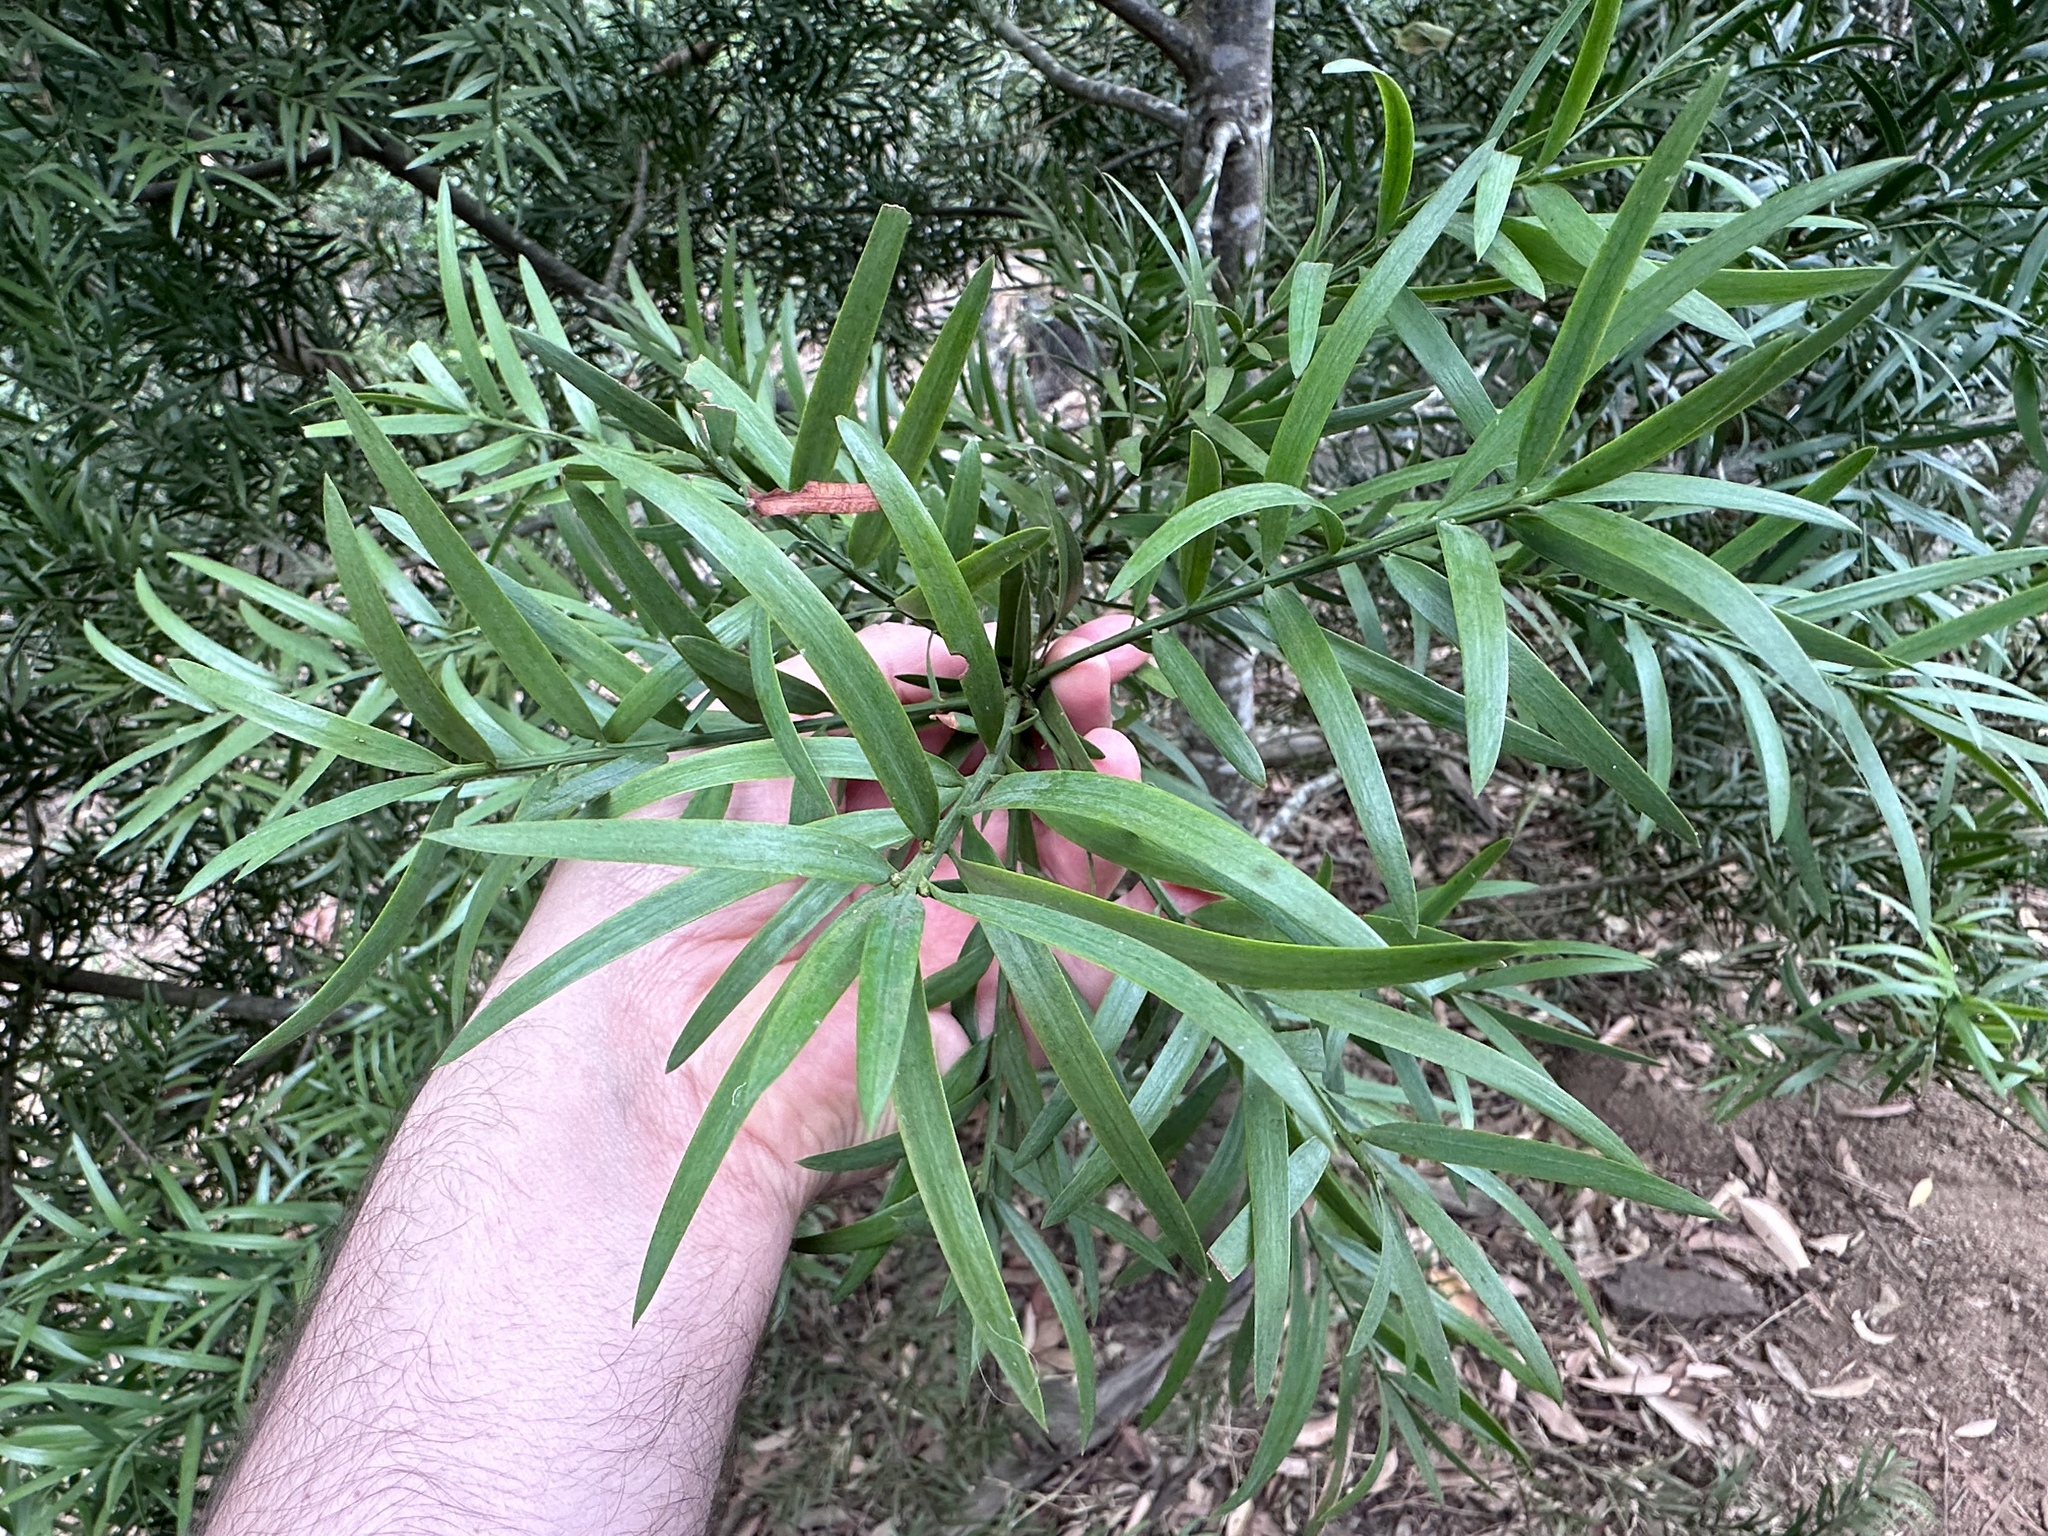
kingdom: Plantae
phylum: Tracheophyta
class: Pinopsida
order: Pinales
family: Podocarpaceae
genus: Afrocarpus
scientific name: Afrocarpus falcatus
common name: Bastard yellowwood
